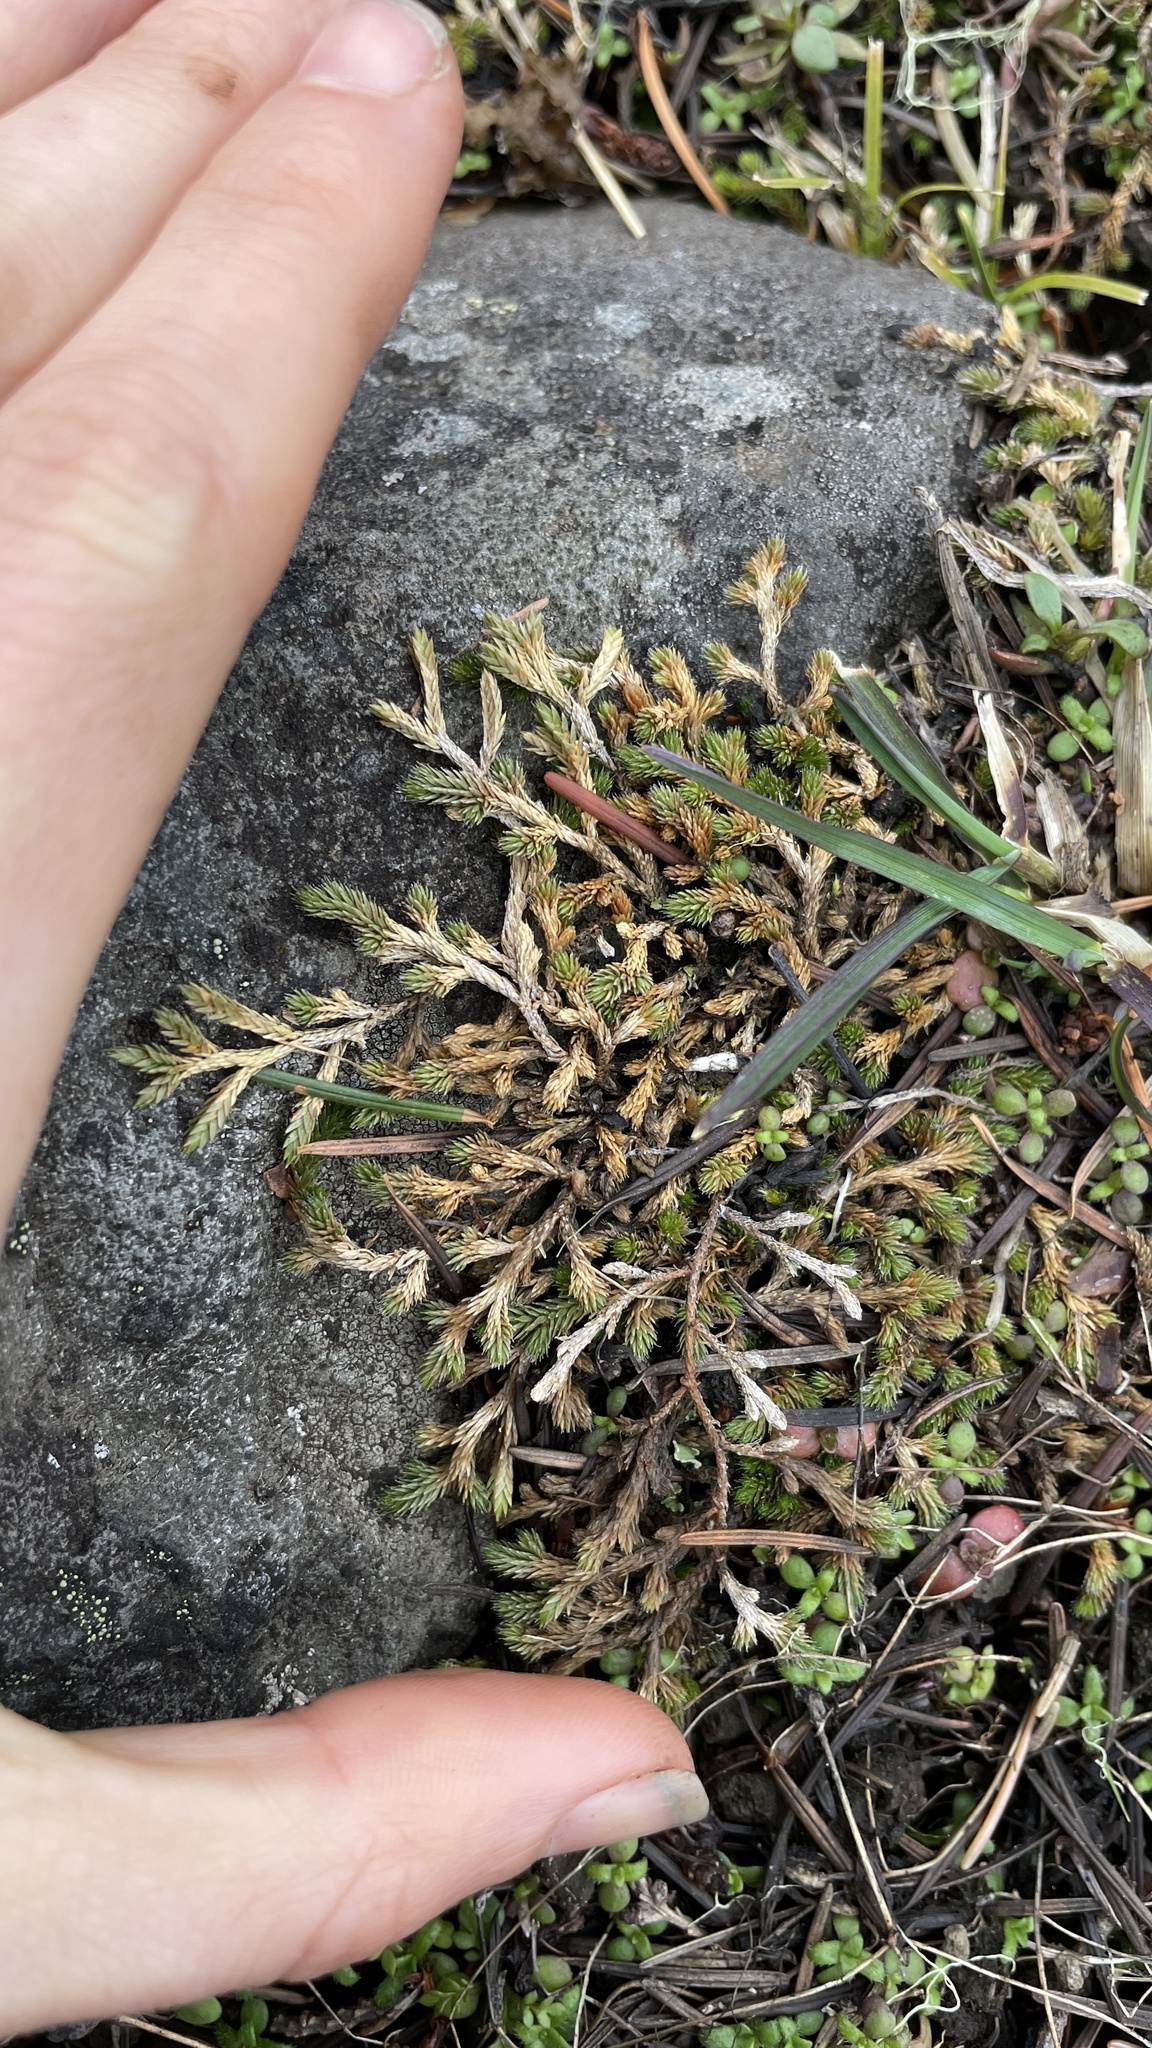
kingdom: Plantae
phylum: Tracheophyta
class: Lycopodiopsida
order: Selaginellales
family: Selaginellaceae
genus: Selaginella
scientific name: Selaginella wallacei
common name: Wallace's selaginella
